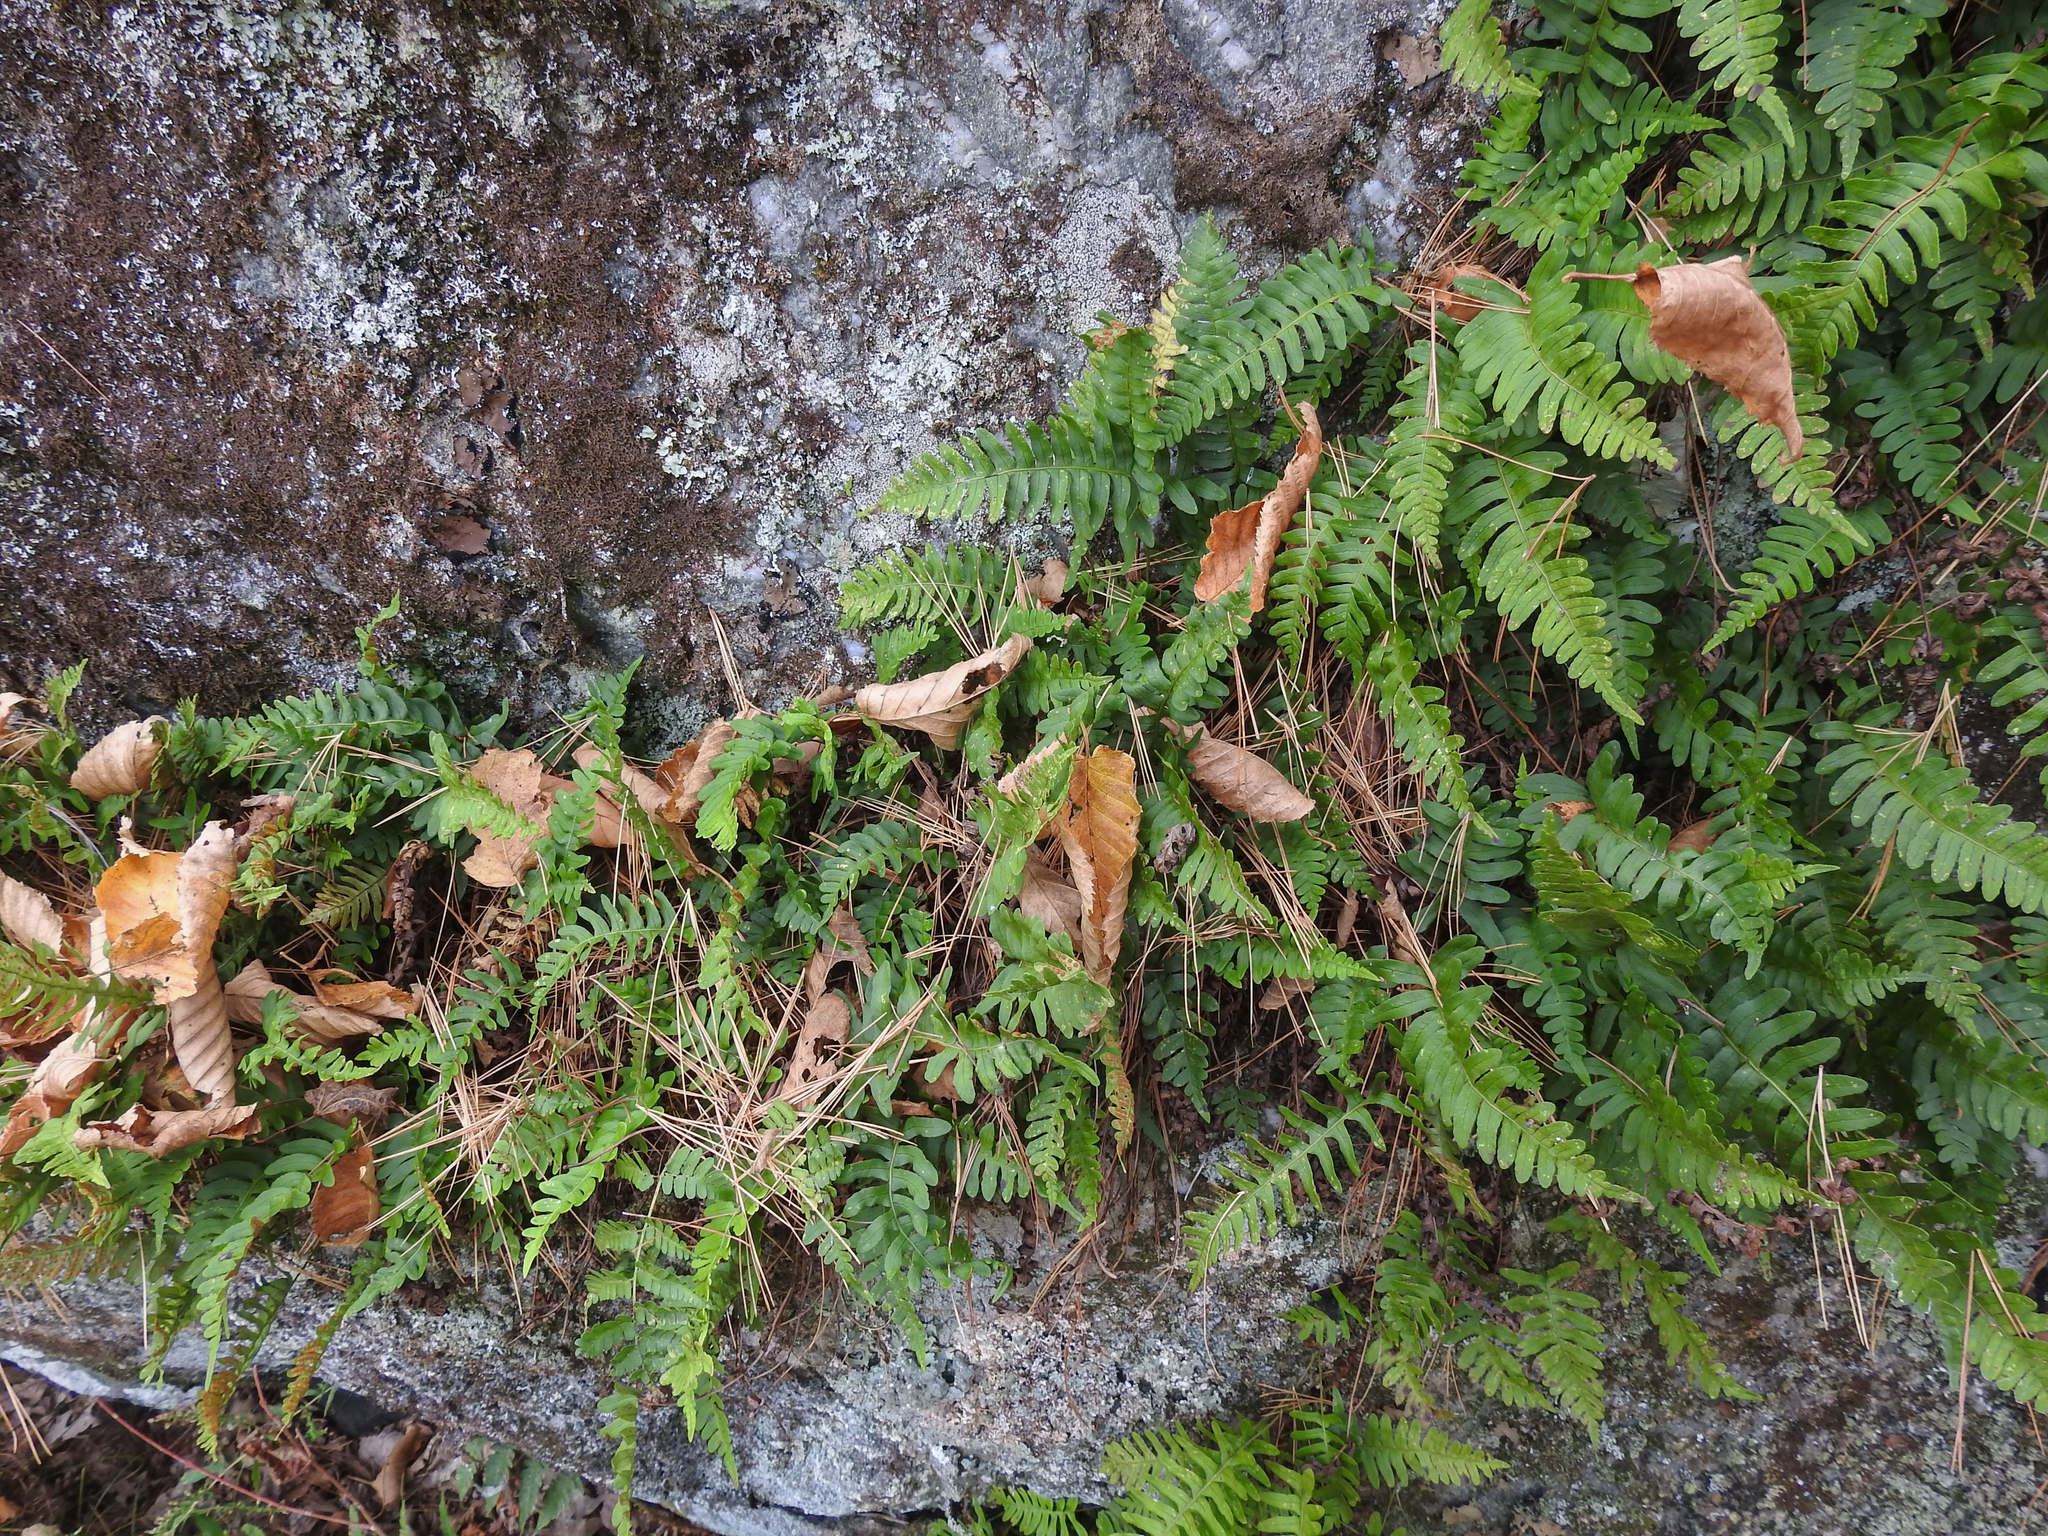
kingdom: Plantae
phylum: Tracheophyta
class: Polypodiopsida
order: Polypodiales
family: Polypodiaceae
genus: Polypodium
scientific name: Polypodium virginianum
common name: American wall fern
